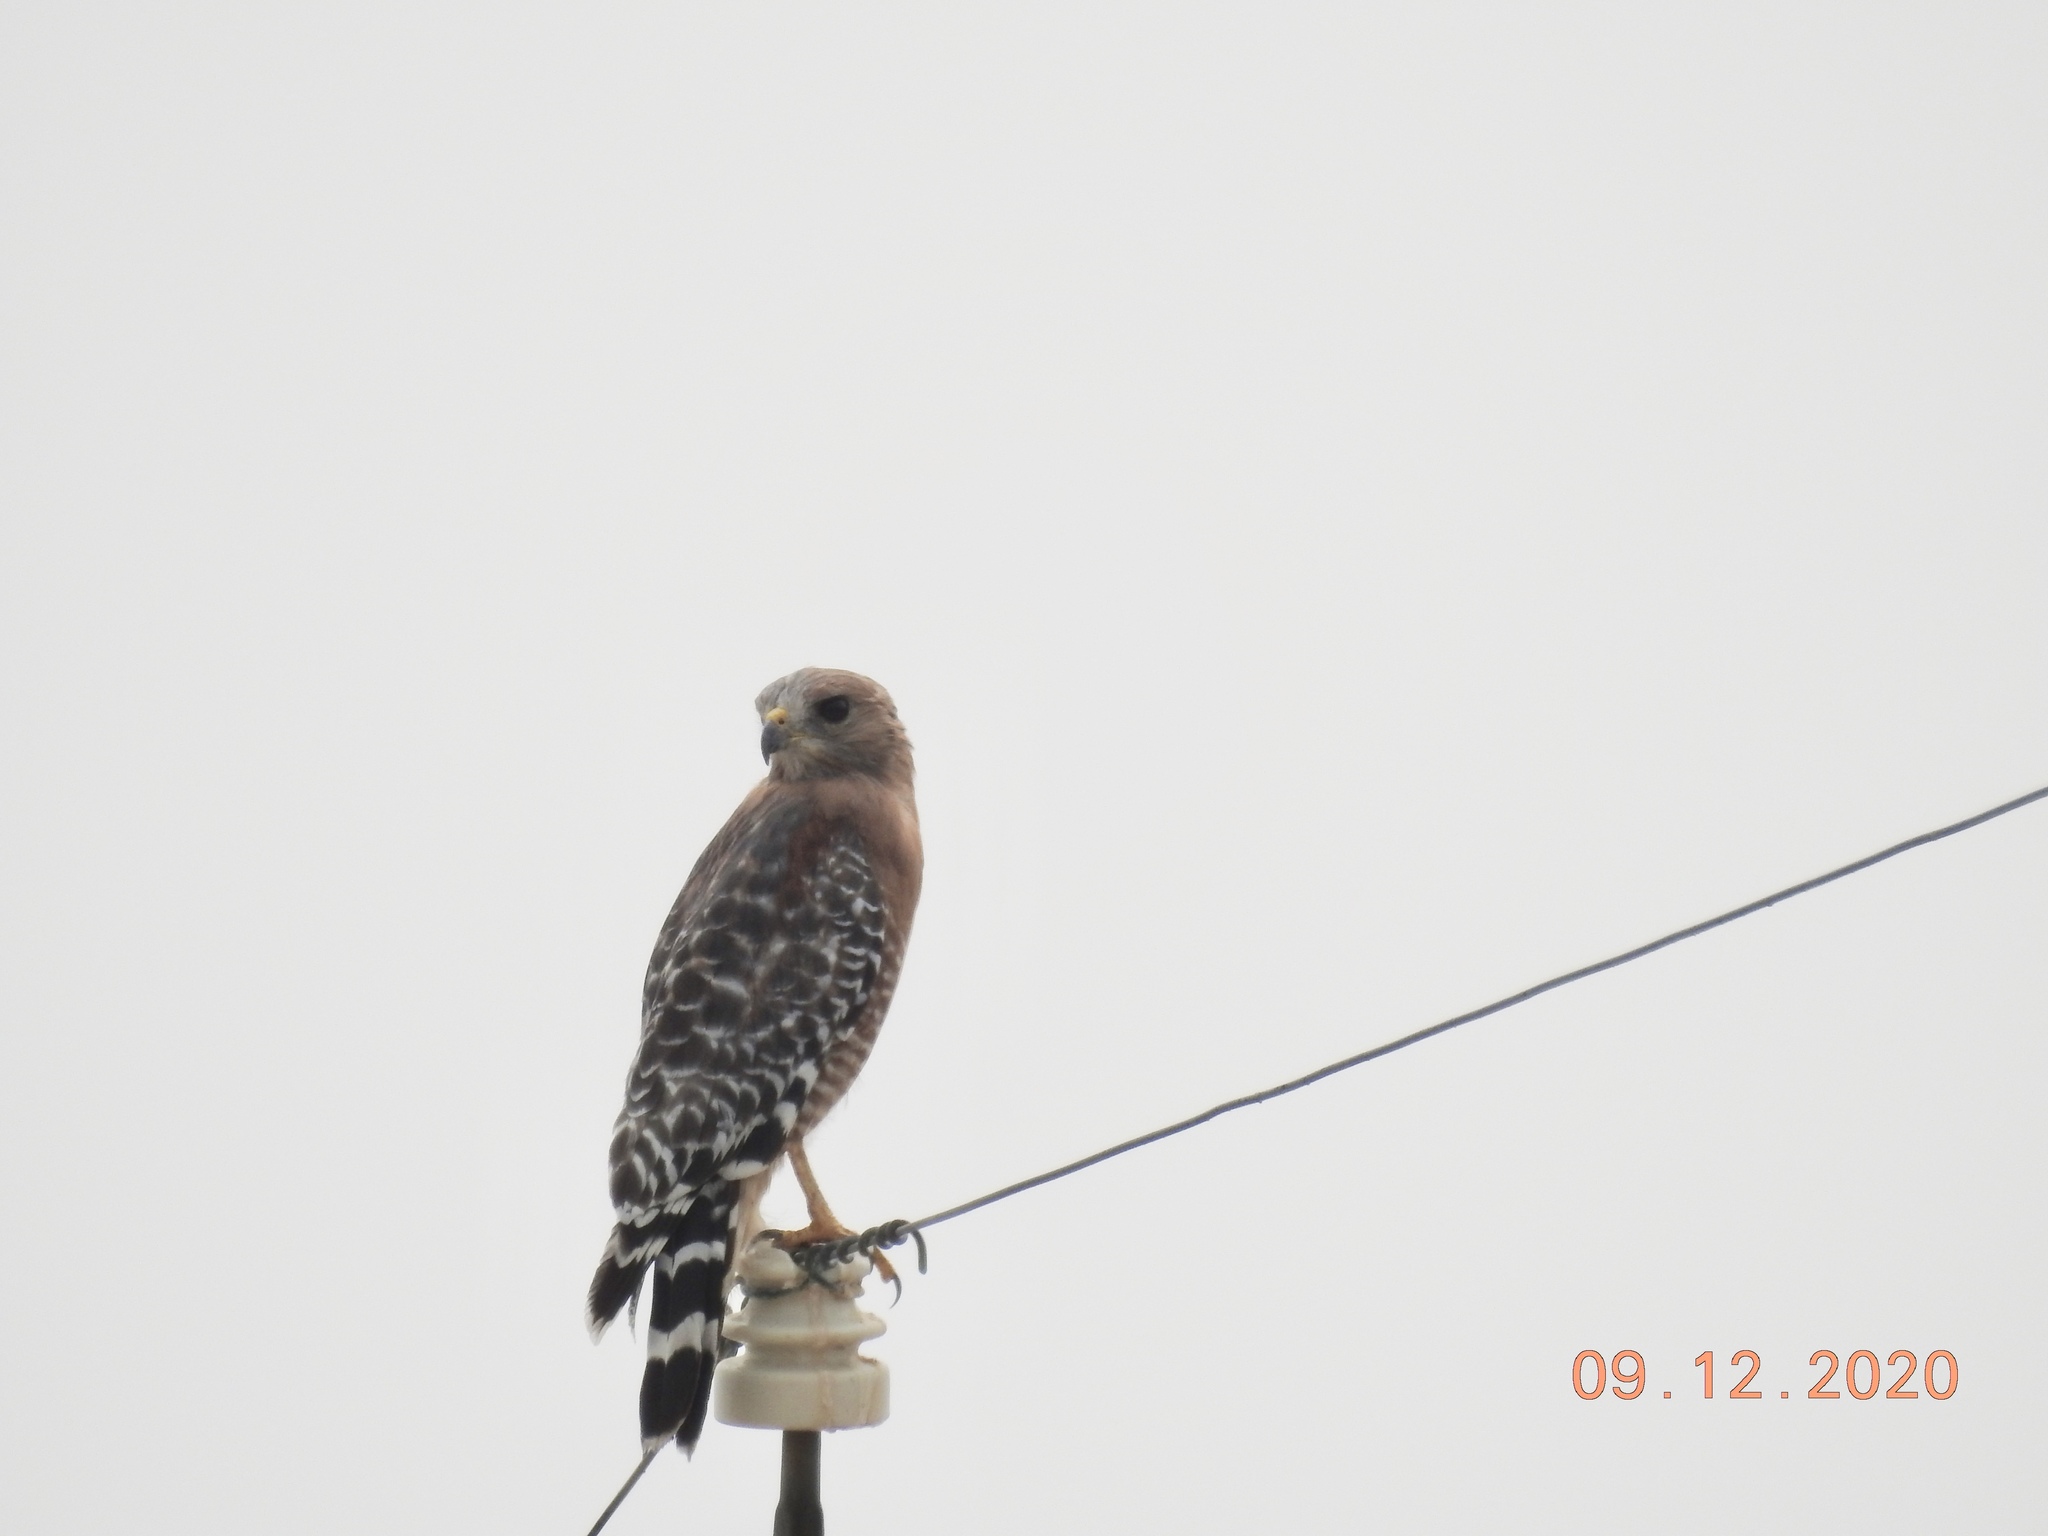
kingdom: Animalia
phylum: Chordata
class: Aves
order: Accipitriformes
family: Accipitridae
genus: Buteo
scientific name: Buteo lineatus
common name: Red-shouldered hawk
